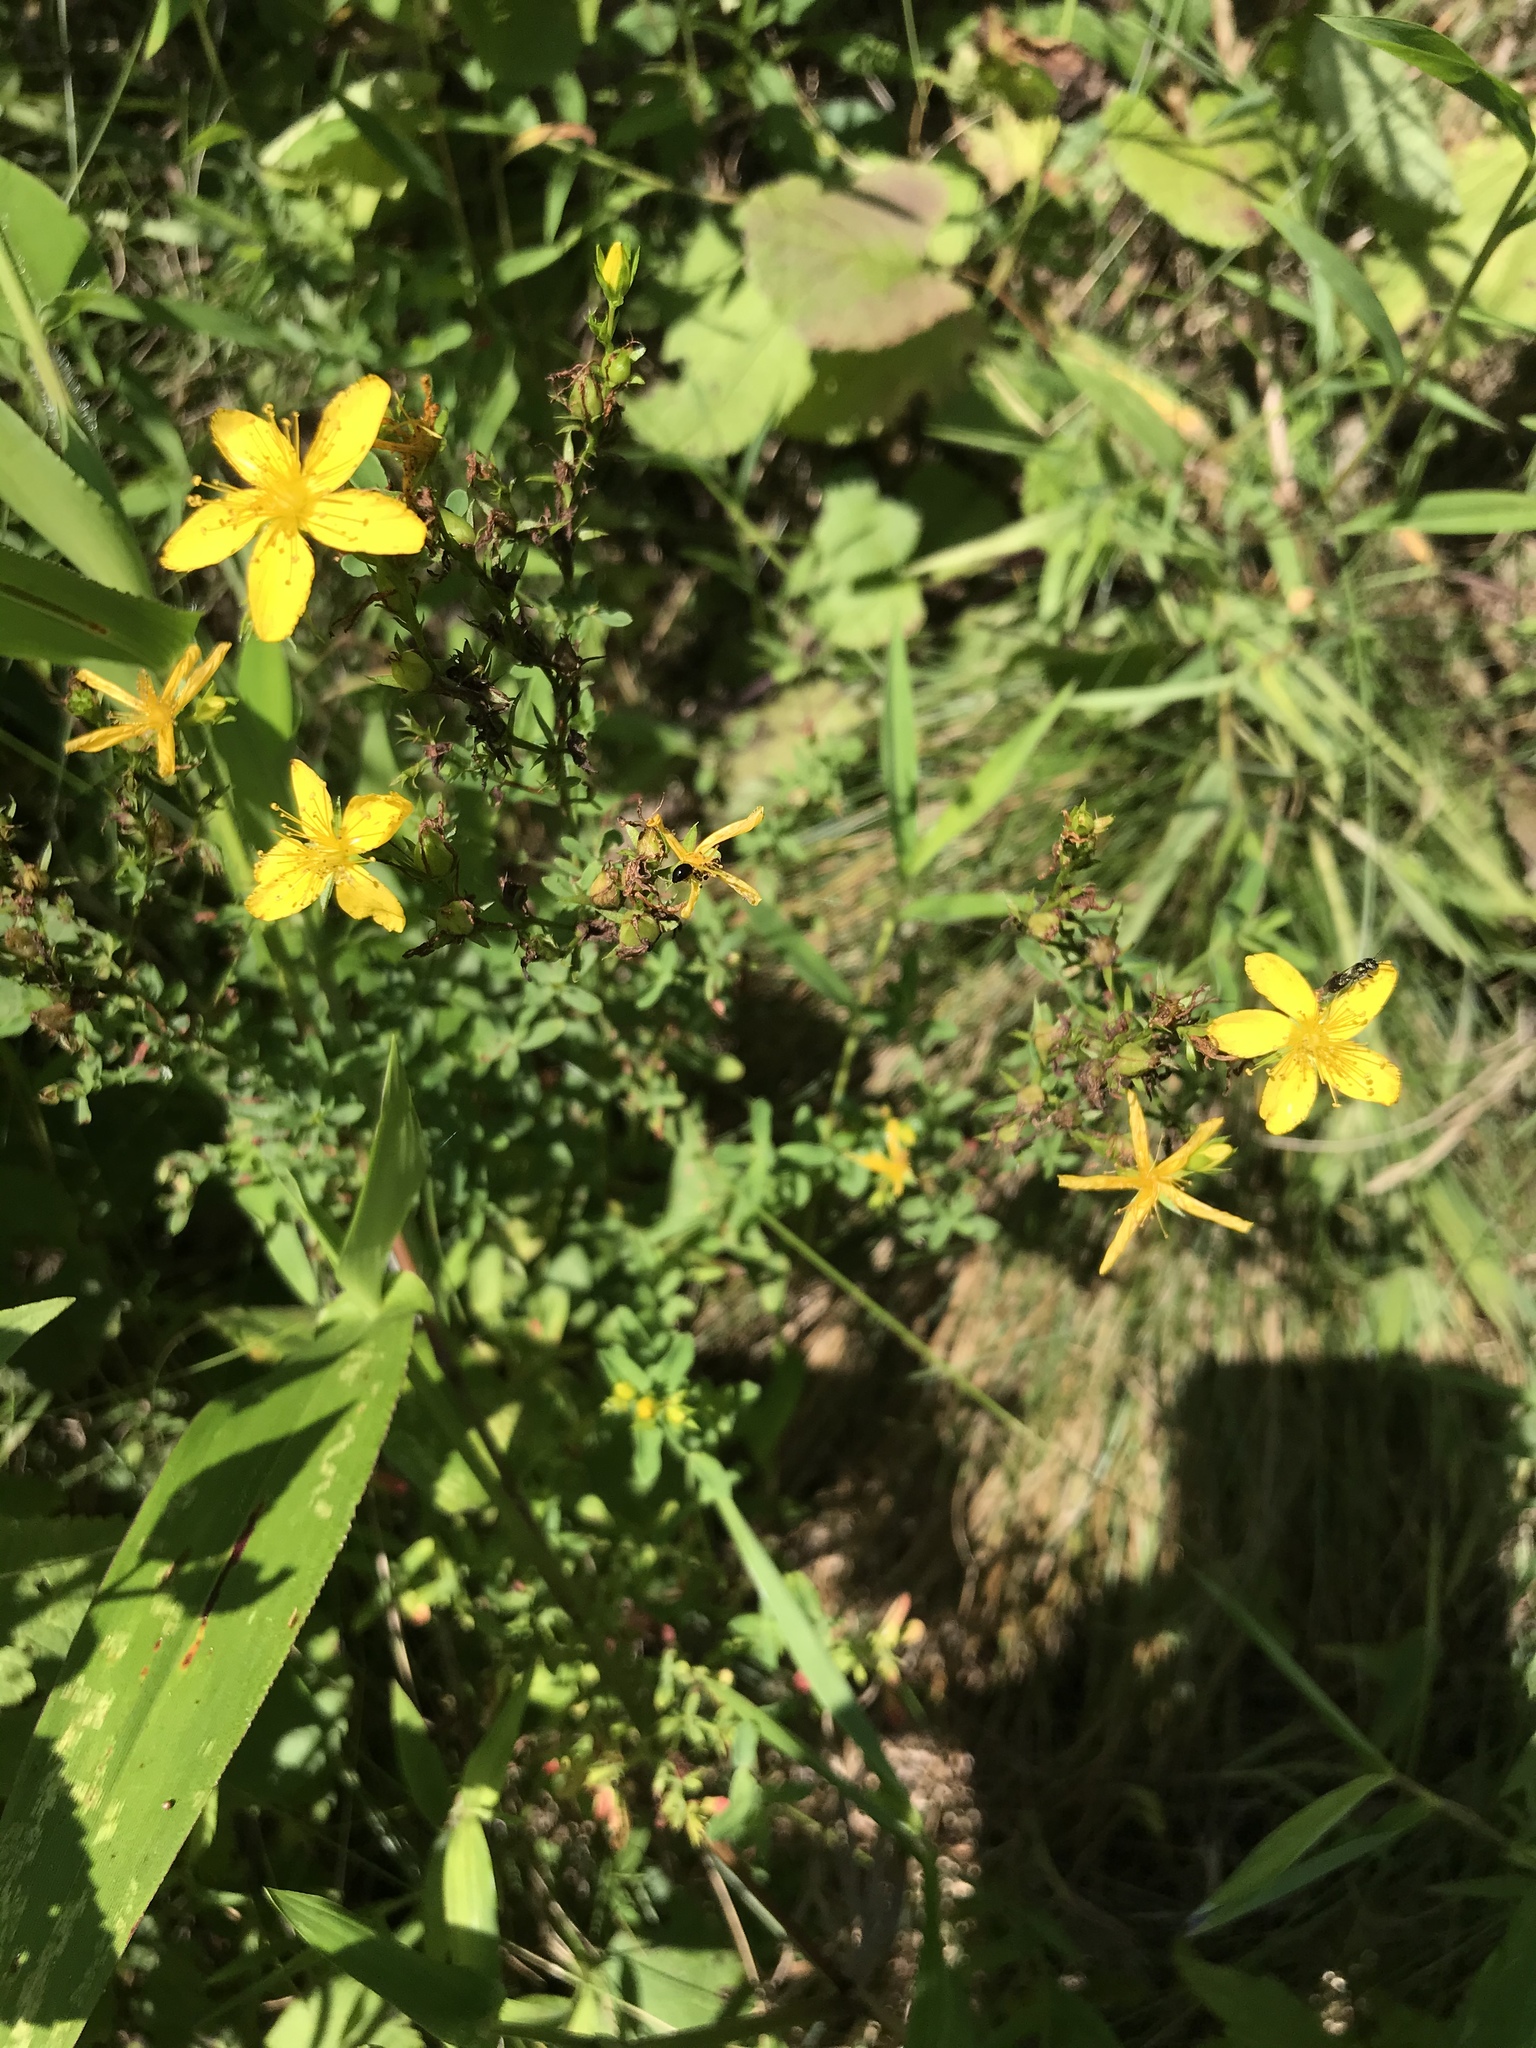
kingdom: Plantae
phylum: Tracheophyta
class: Magnoliopsida
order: Malpighiales
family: Hypericaceae
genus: Hypericum
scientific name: Hypericum perforatum
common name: Common st. johnswort
